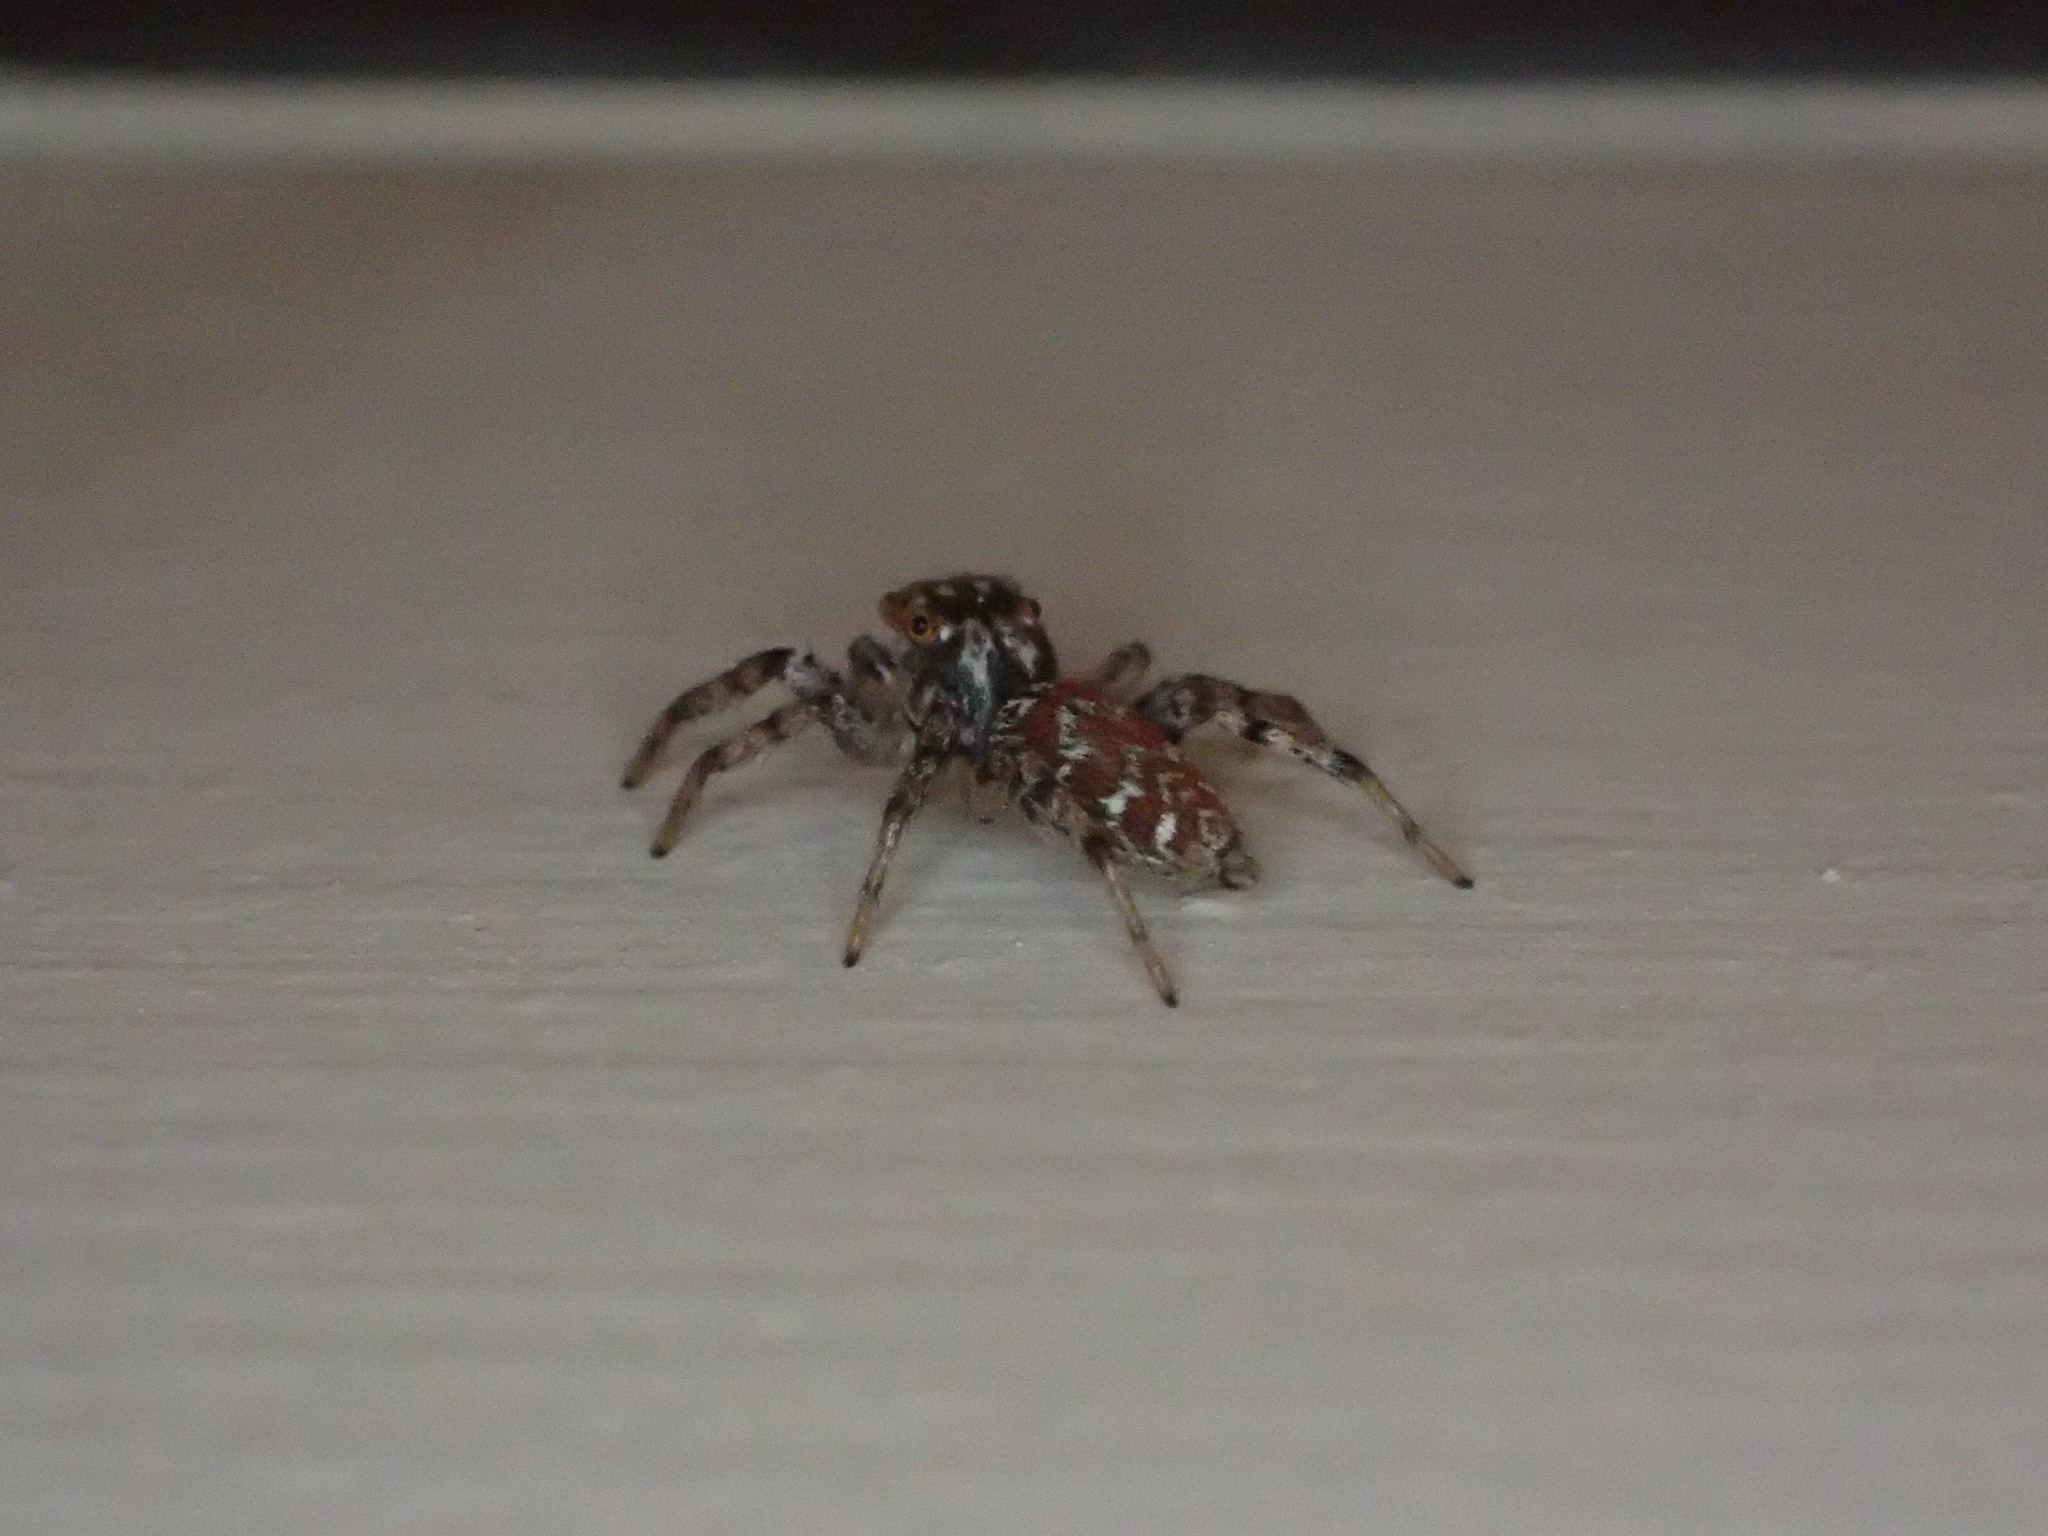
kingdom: Animalia
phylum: Arthropoda
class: Arachnida
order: Araneae
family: Salticidae
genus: Maevia
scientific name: Maevia inclemens
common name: Dimorphic jumper
